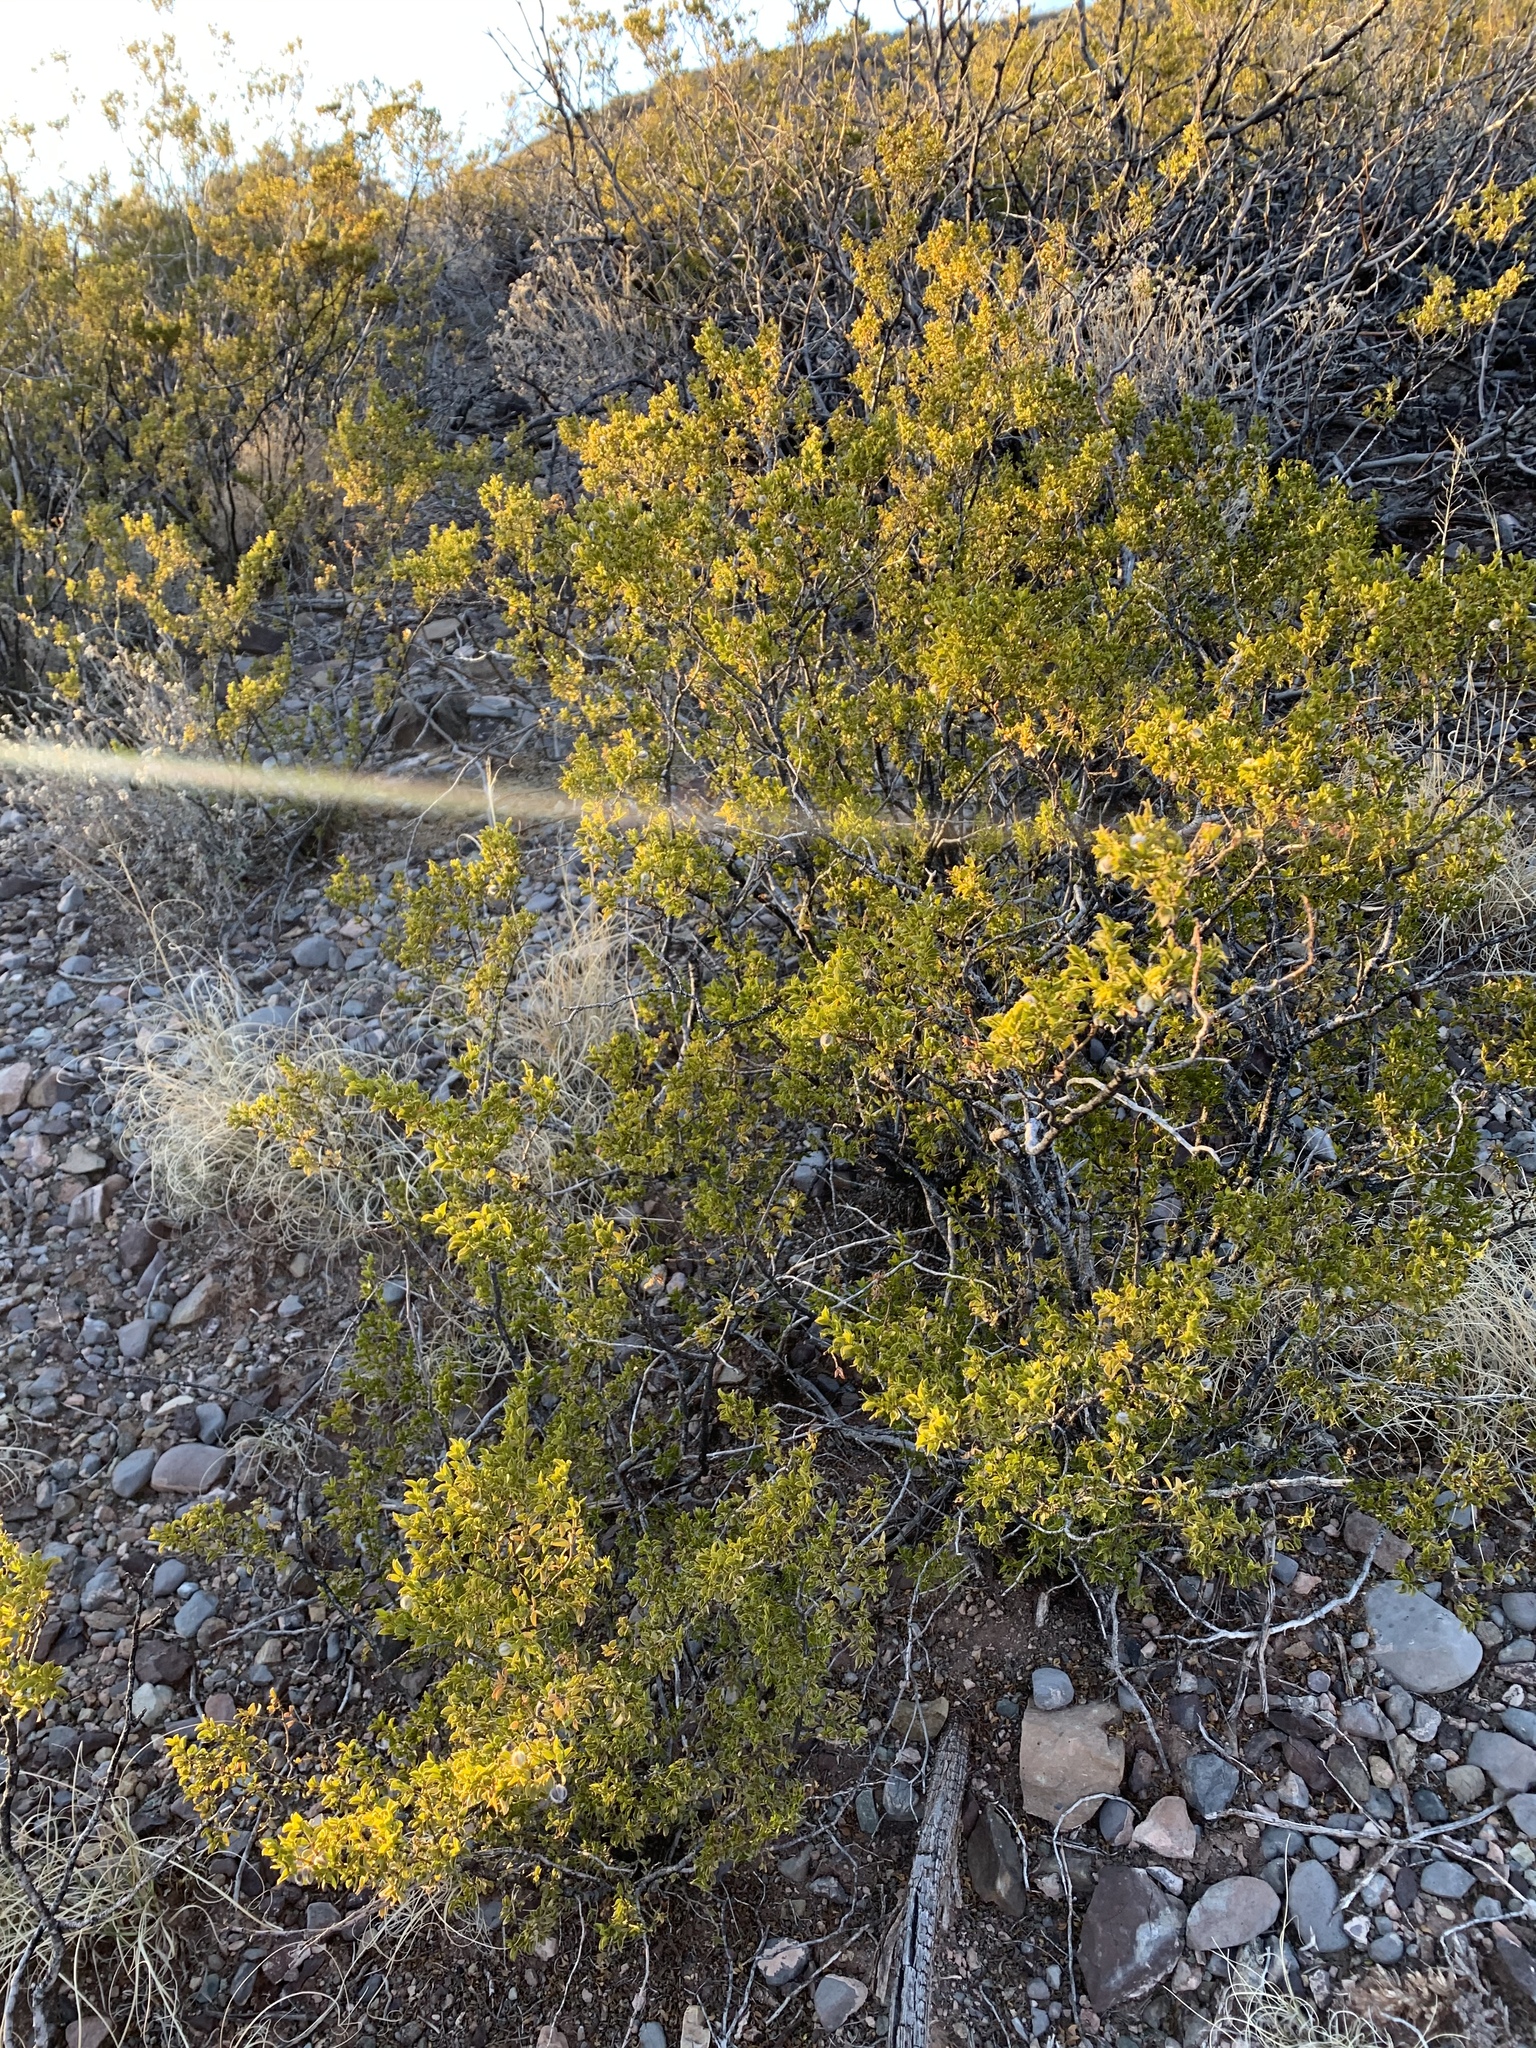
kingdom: Plantae
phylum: Tracheophyta
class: Magnoliopsida
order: Zygophyllales
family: Zygophyllaceae
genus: Larrea
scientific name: Larrea tridentata
